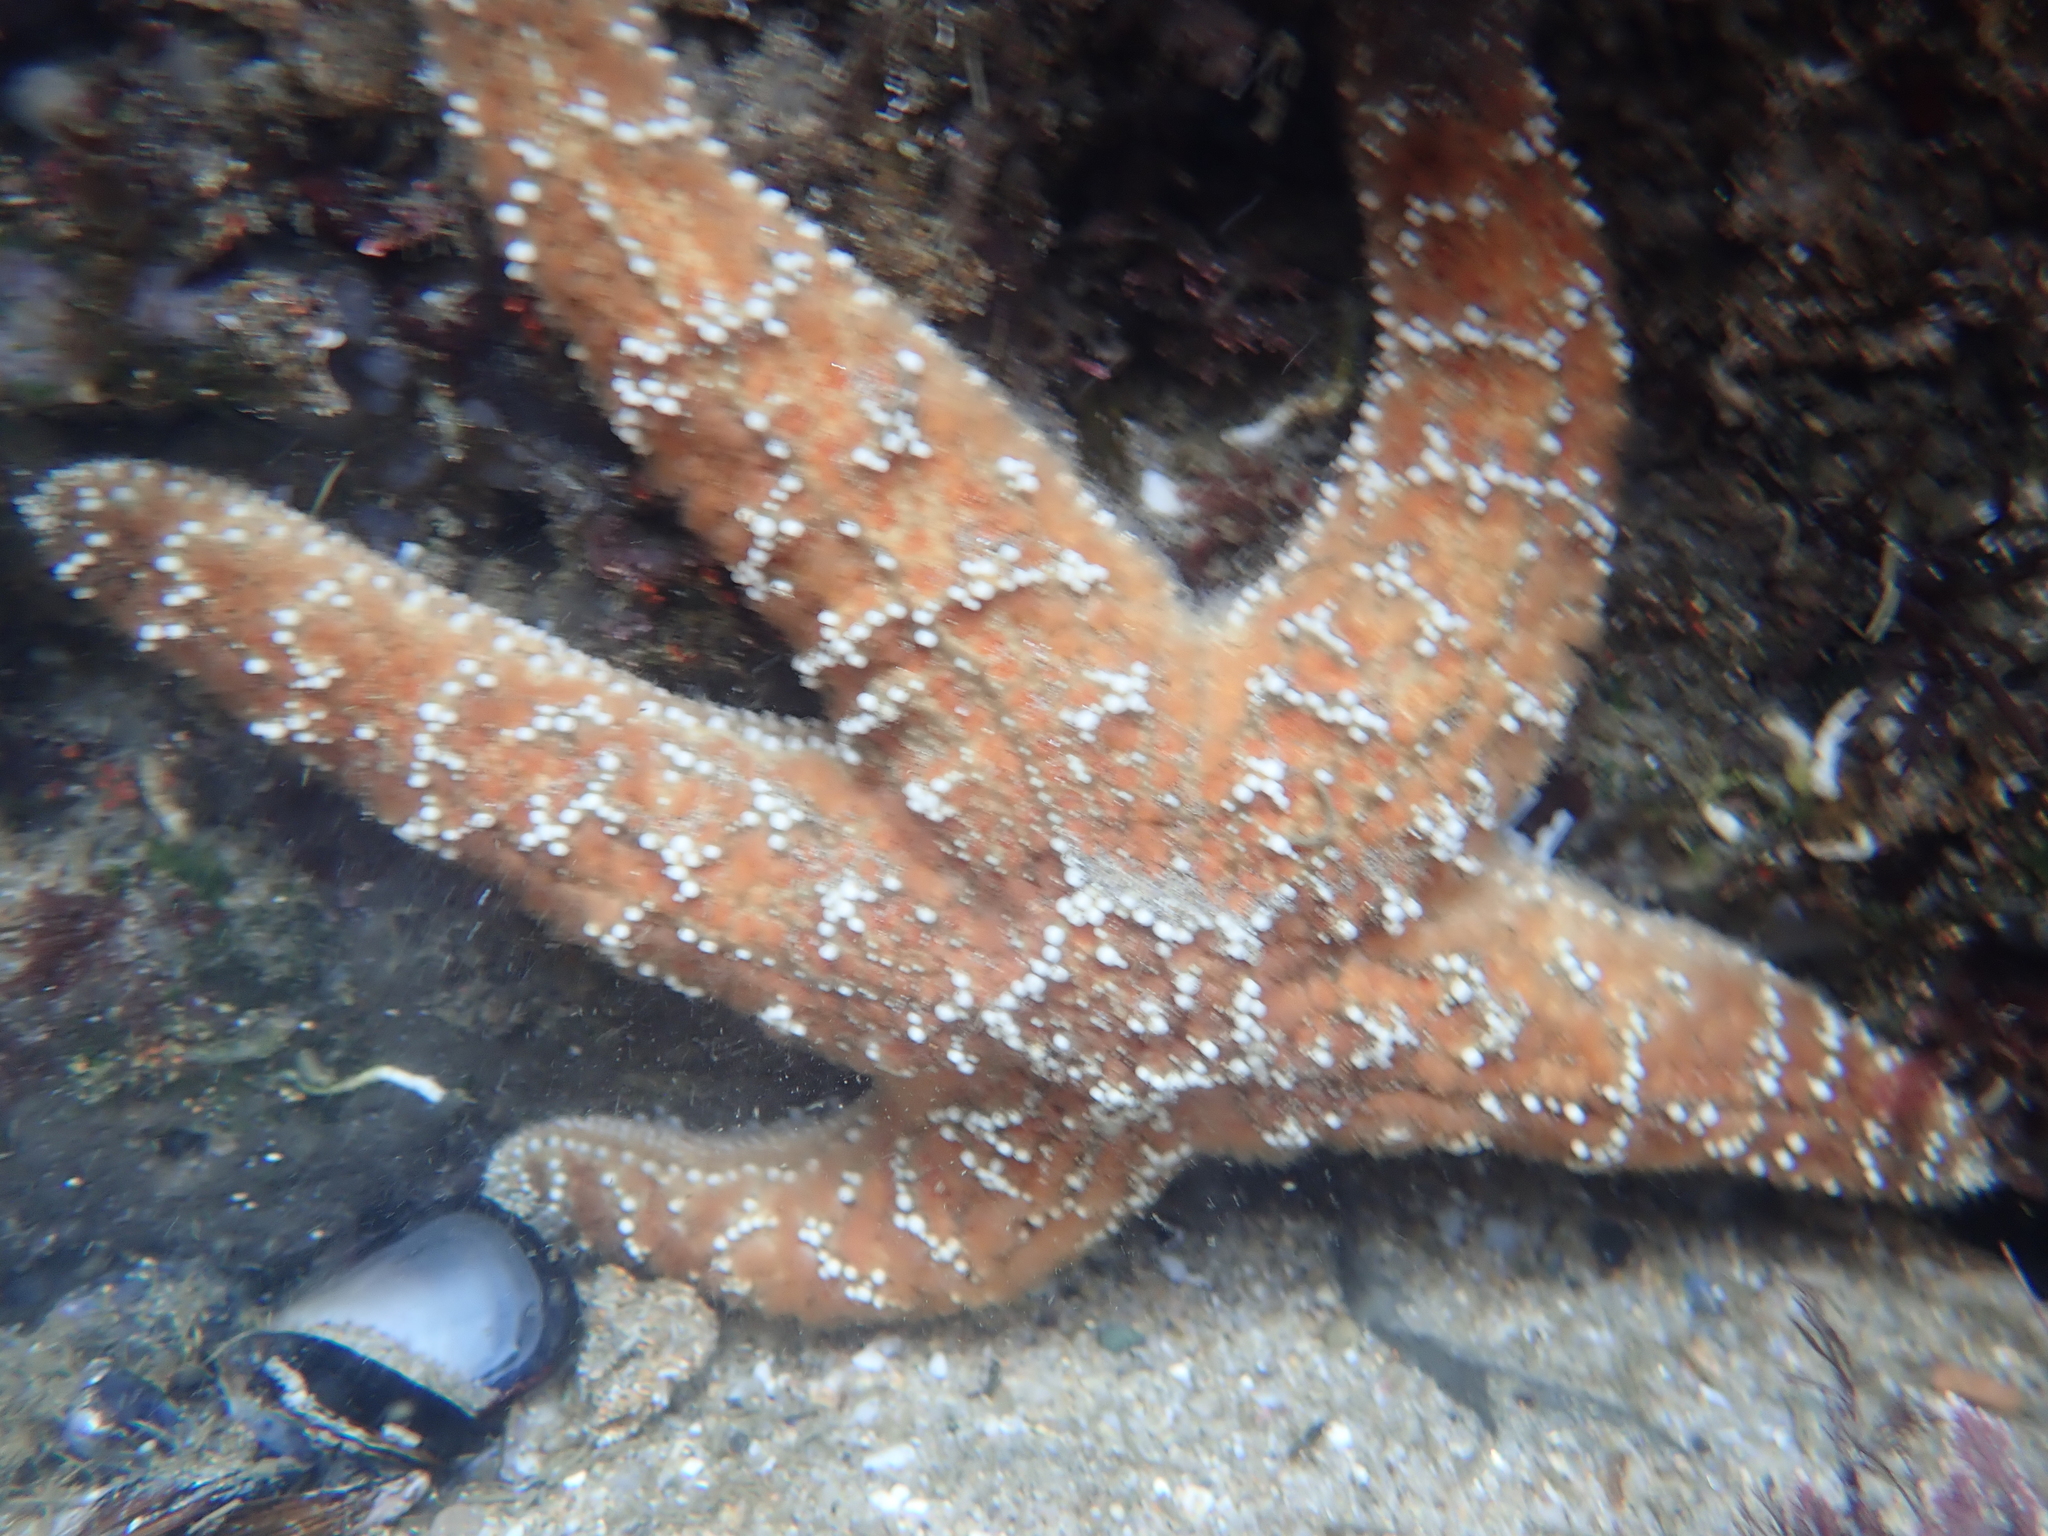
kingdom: Animalia
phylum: Echinodermata
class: Asteroidea
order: Forcipulatida
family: Asteriidae
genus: Pisaster
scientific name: Pisaster ochraceus
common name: Ochre stars
